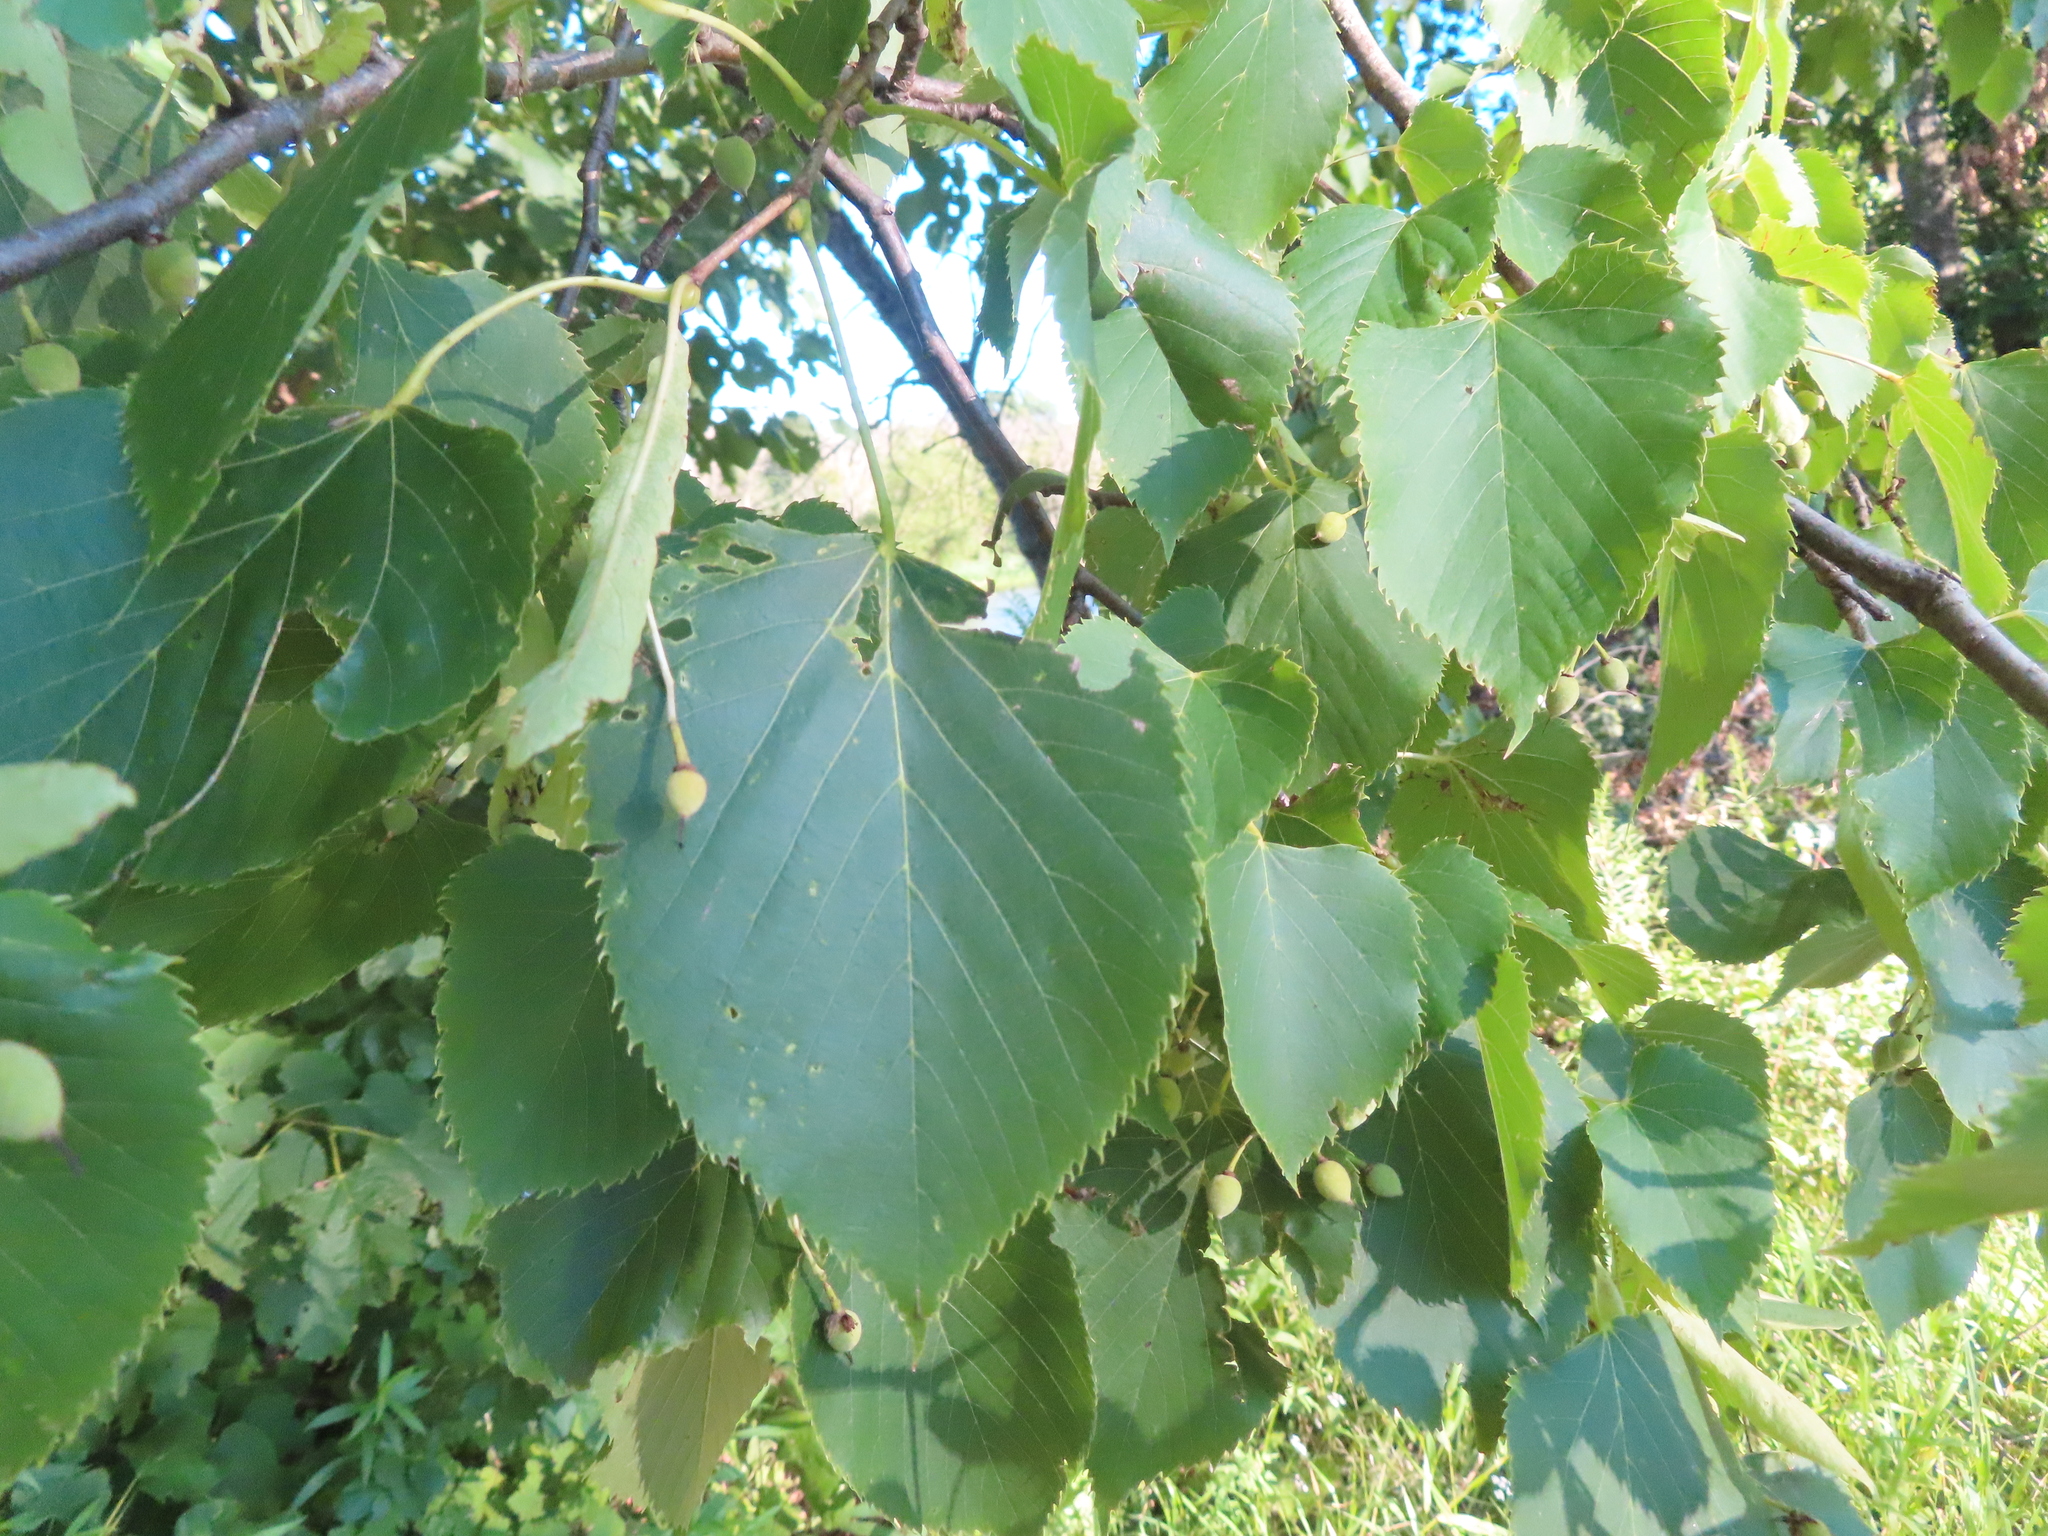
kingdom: Plantae
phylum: Tracheophyta
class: Magnoliopsida
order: Malvales
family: Malvaceae
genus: Tilia
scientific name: Tilia americana
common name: Basswood
